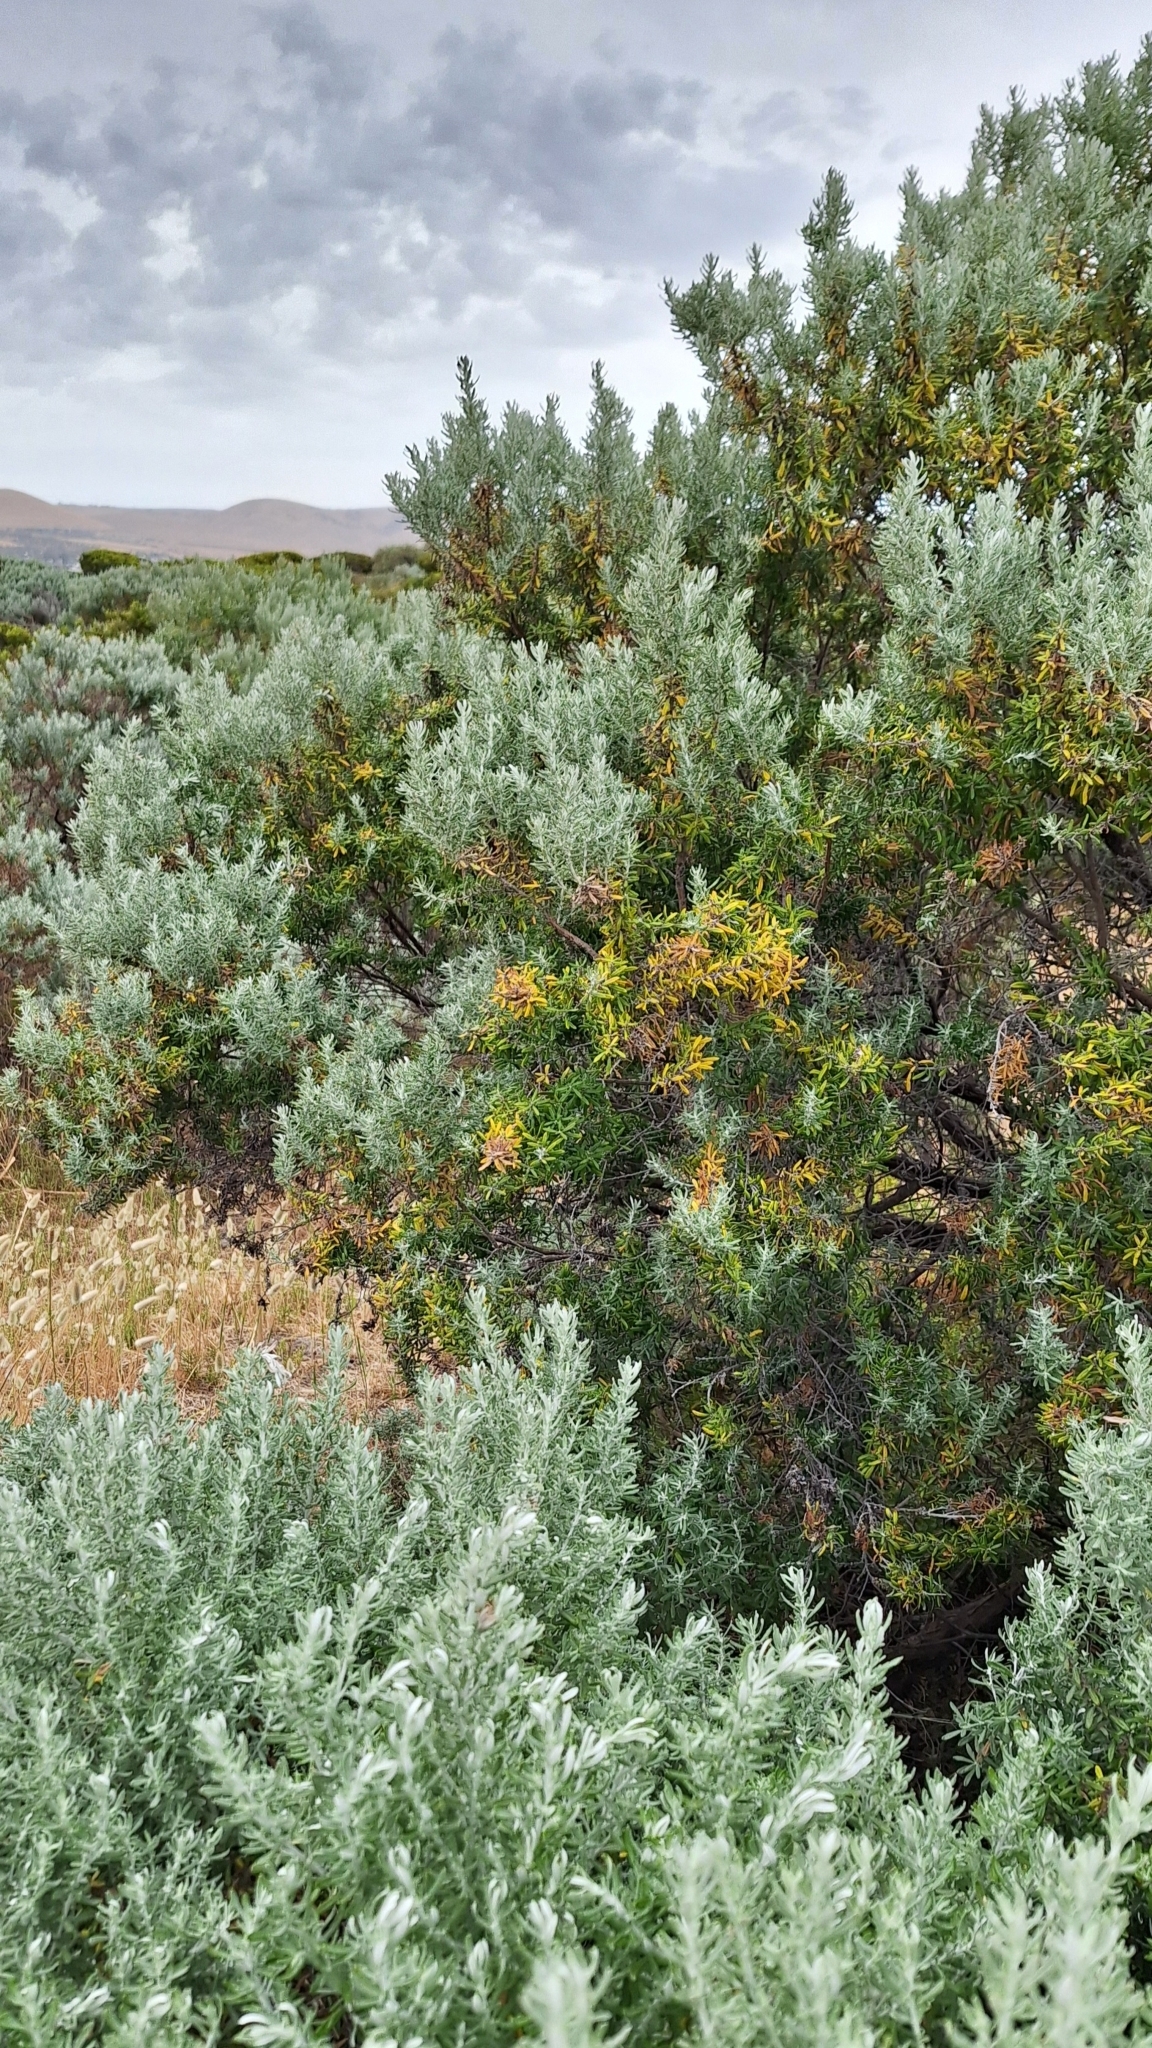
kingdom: Plantae
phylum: Tracheophyta
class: Magnoliopsida
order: Asterales
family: Asteraceae
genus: Olearia
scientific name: Olearia axillaris
